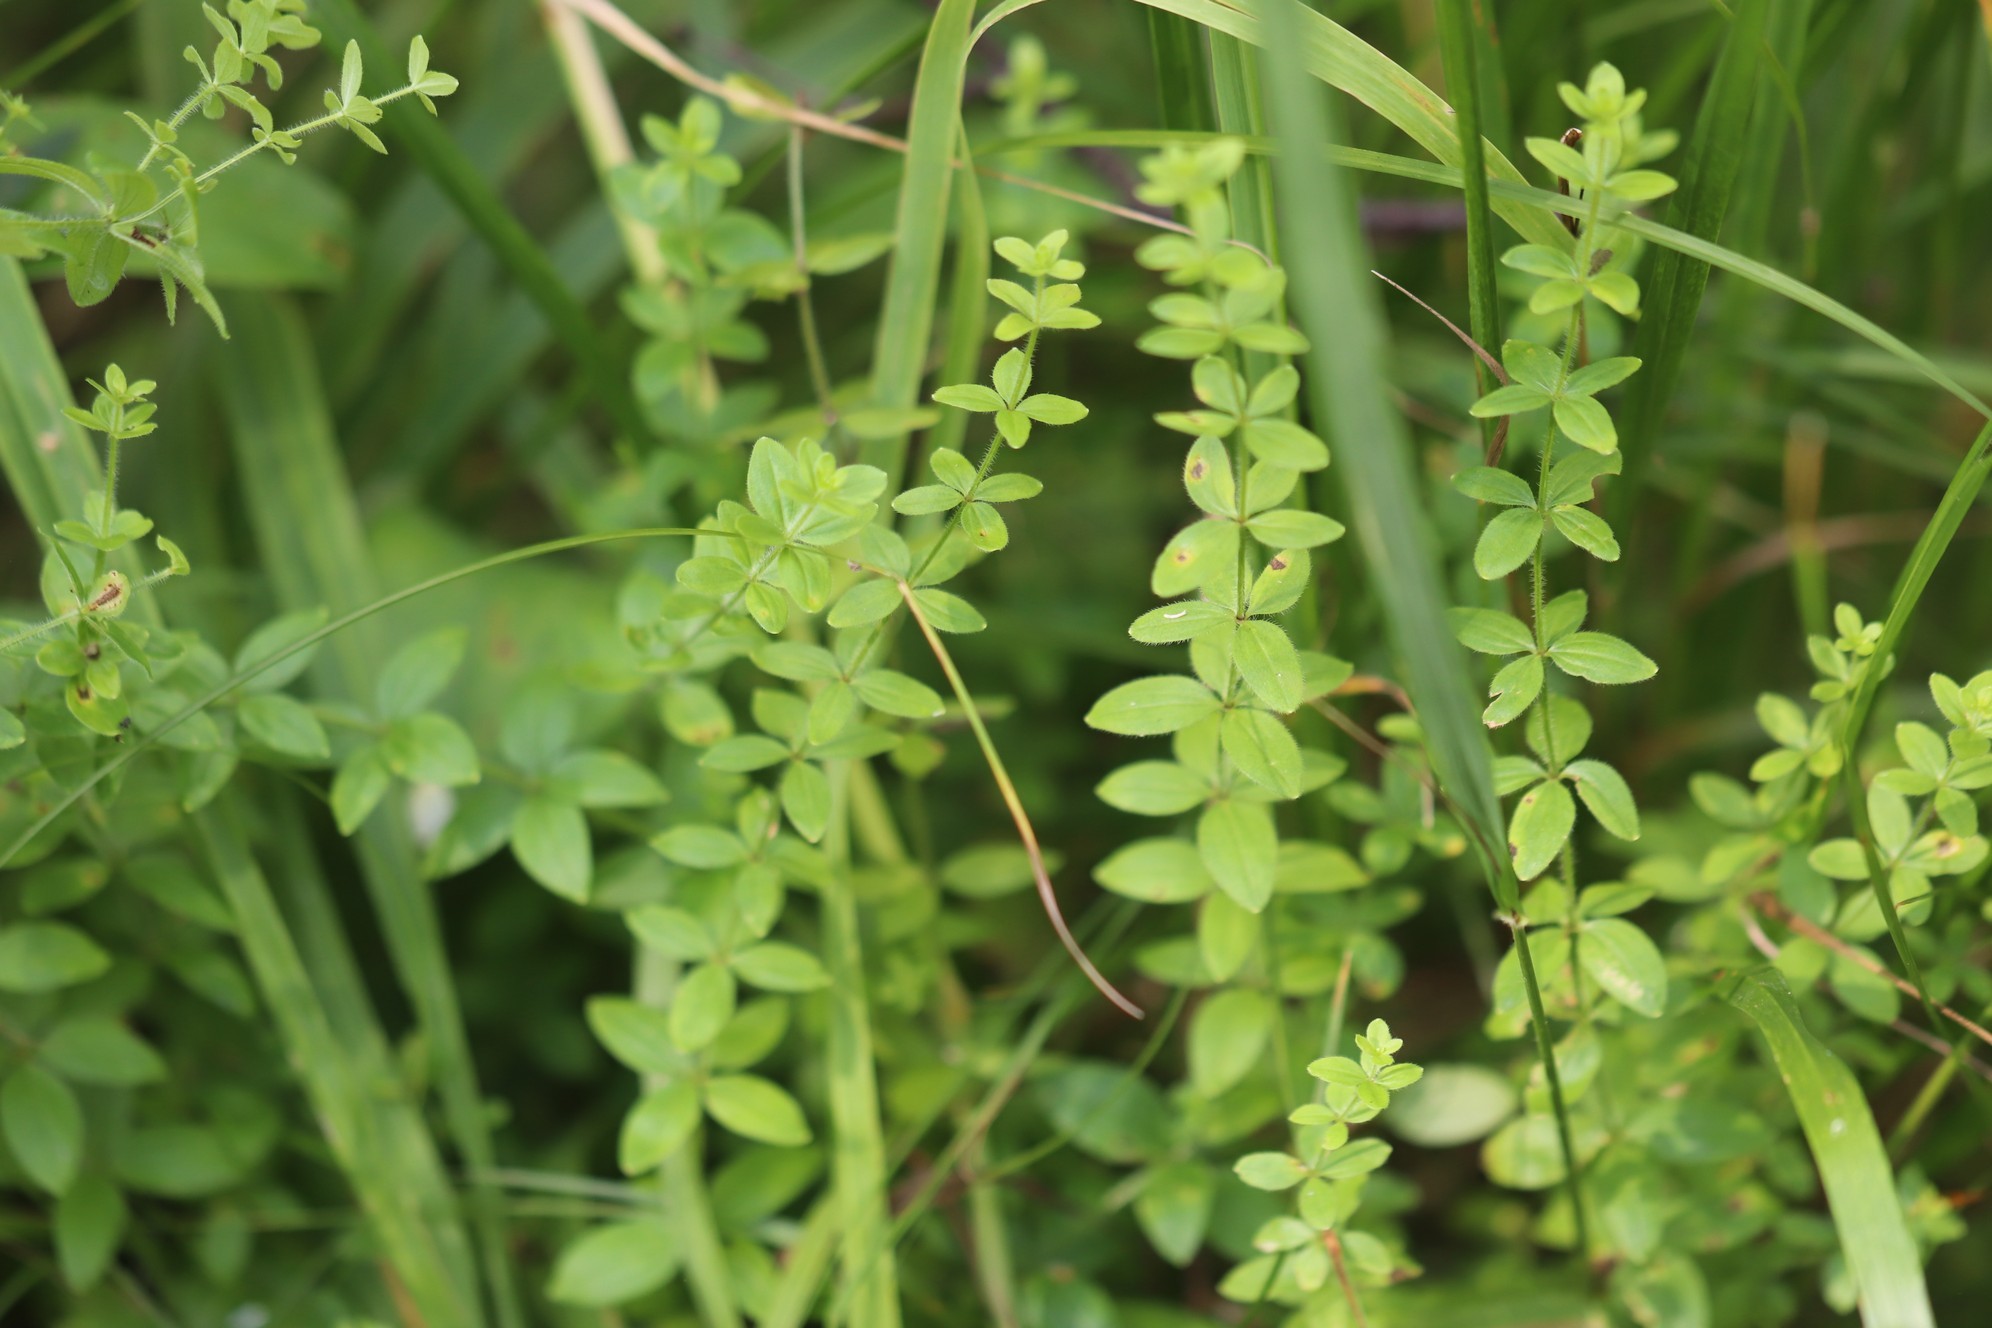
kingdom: Plantae
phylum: Tracheophyta
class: Magnoliopsida
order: Gentianales
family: Rubiaceae
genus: Cruciata
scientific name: Cruciata glabra
